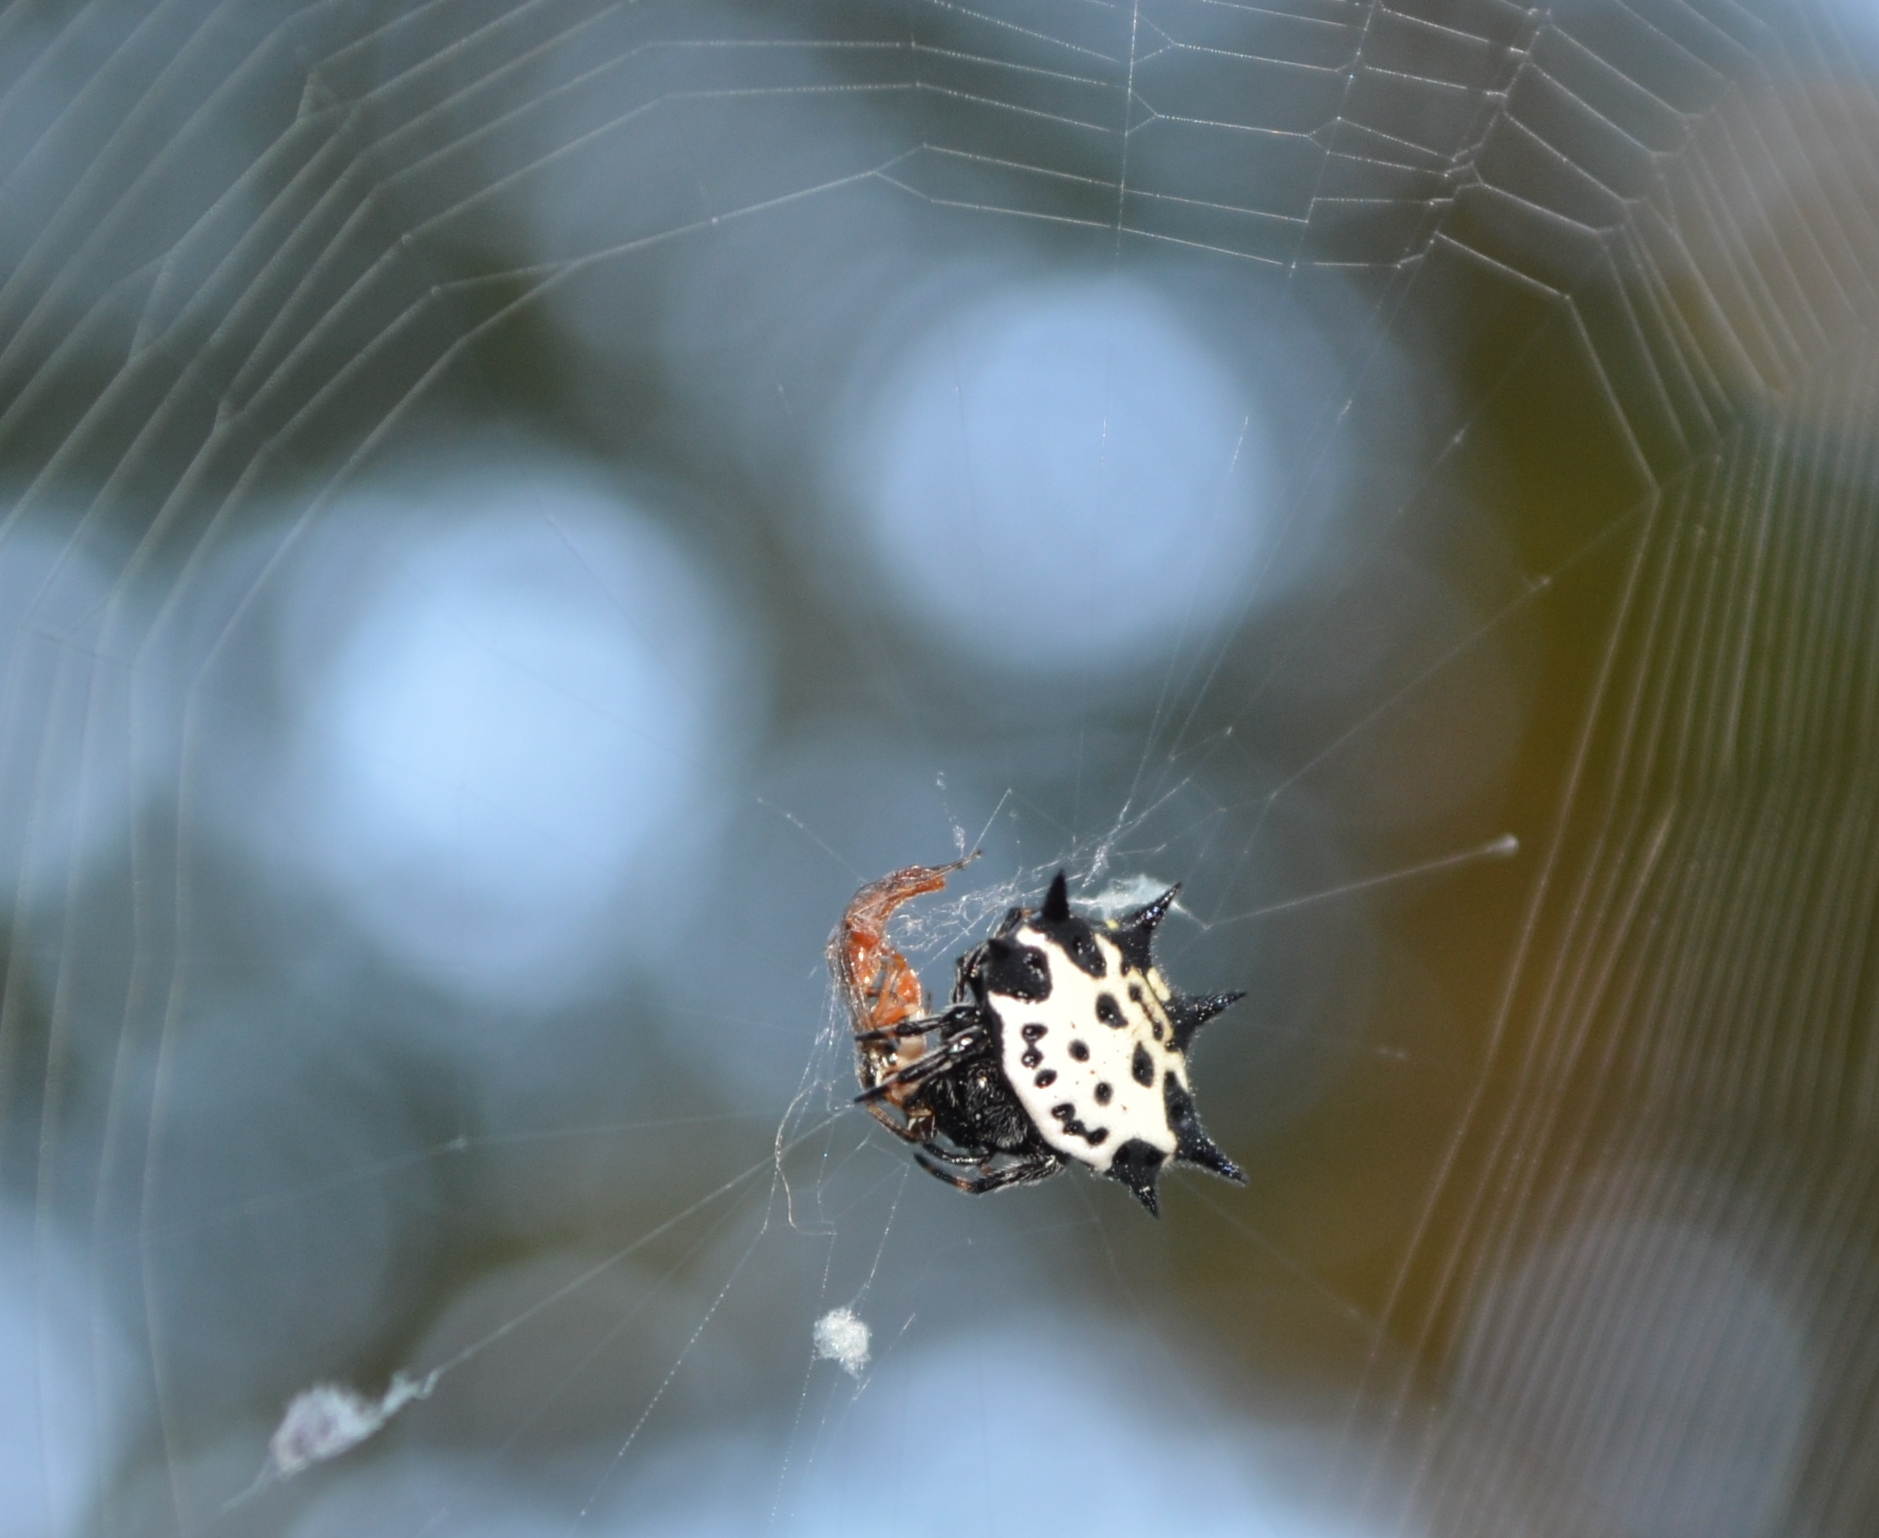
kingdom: Animalia
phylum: Arthropoda
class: Arachnida
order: Araneae
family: Araneidae
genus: Gasteracantha
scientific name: Gasteracantha cancriformis
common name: Orb weavers
